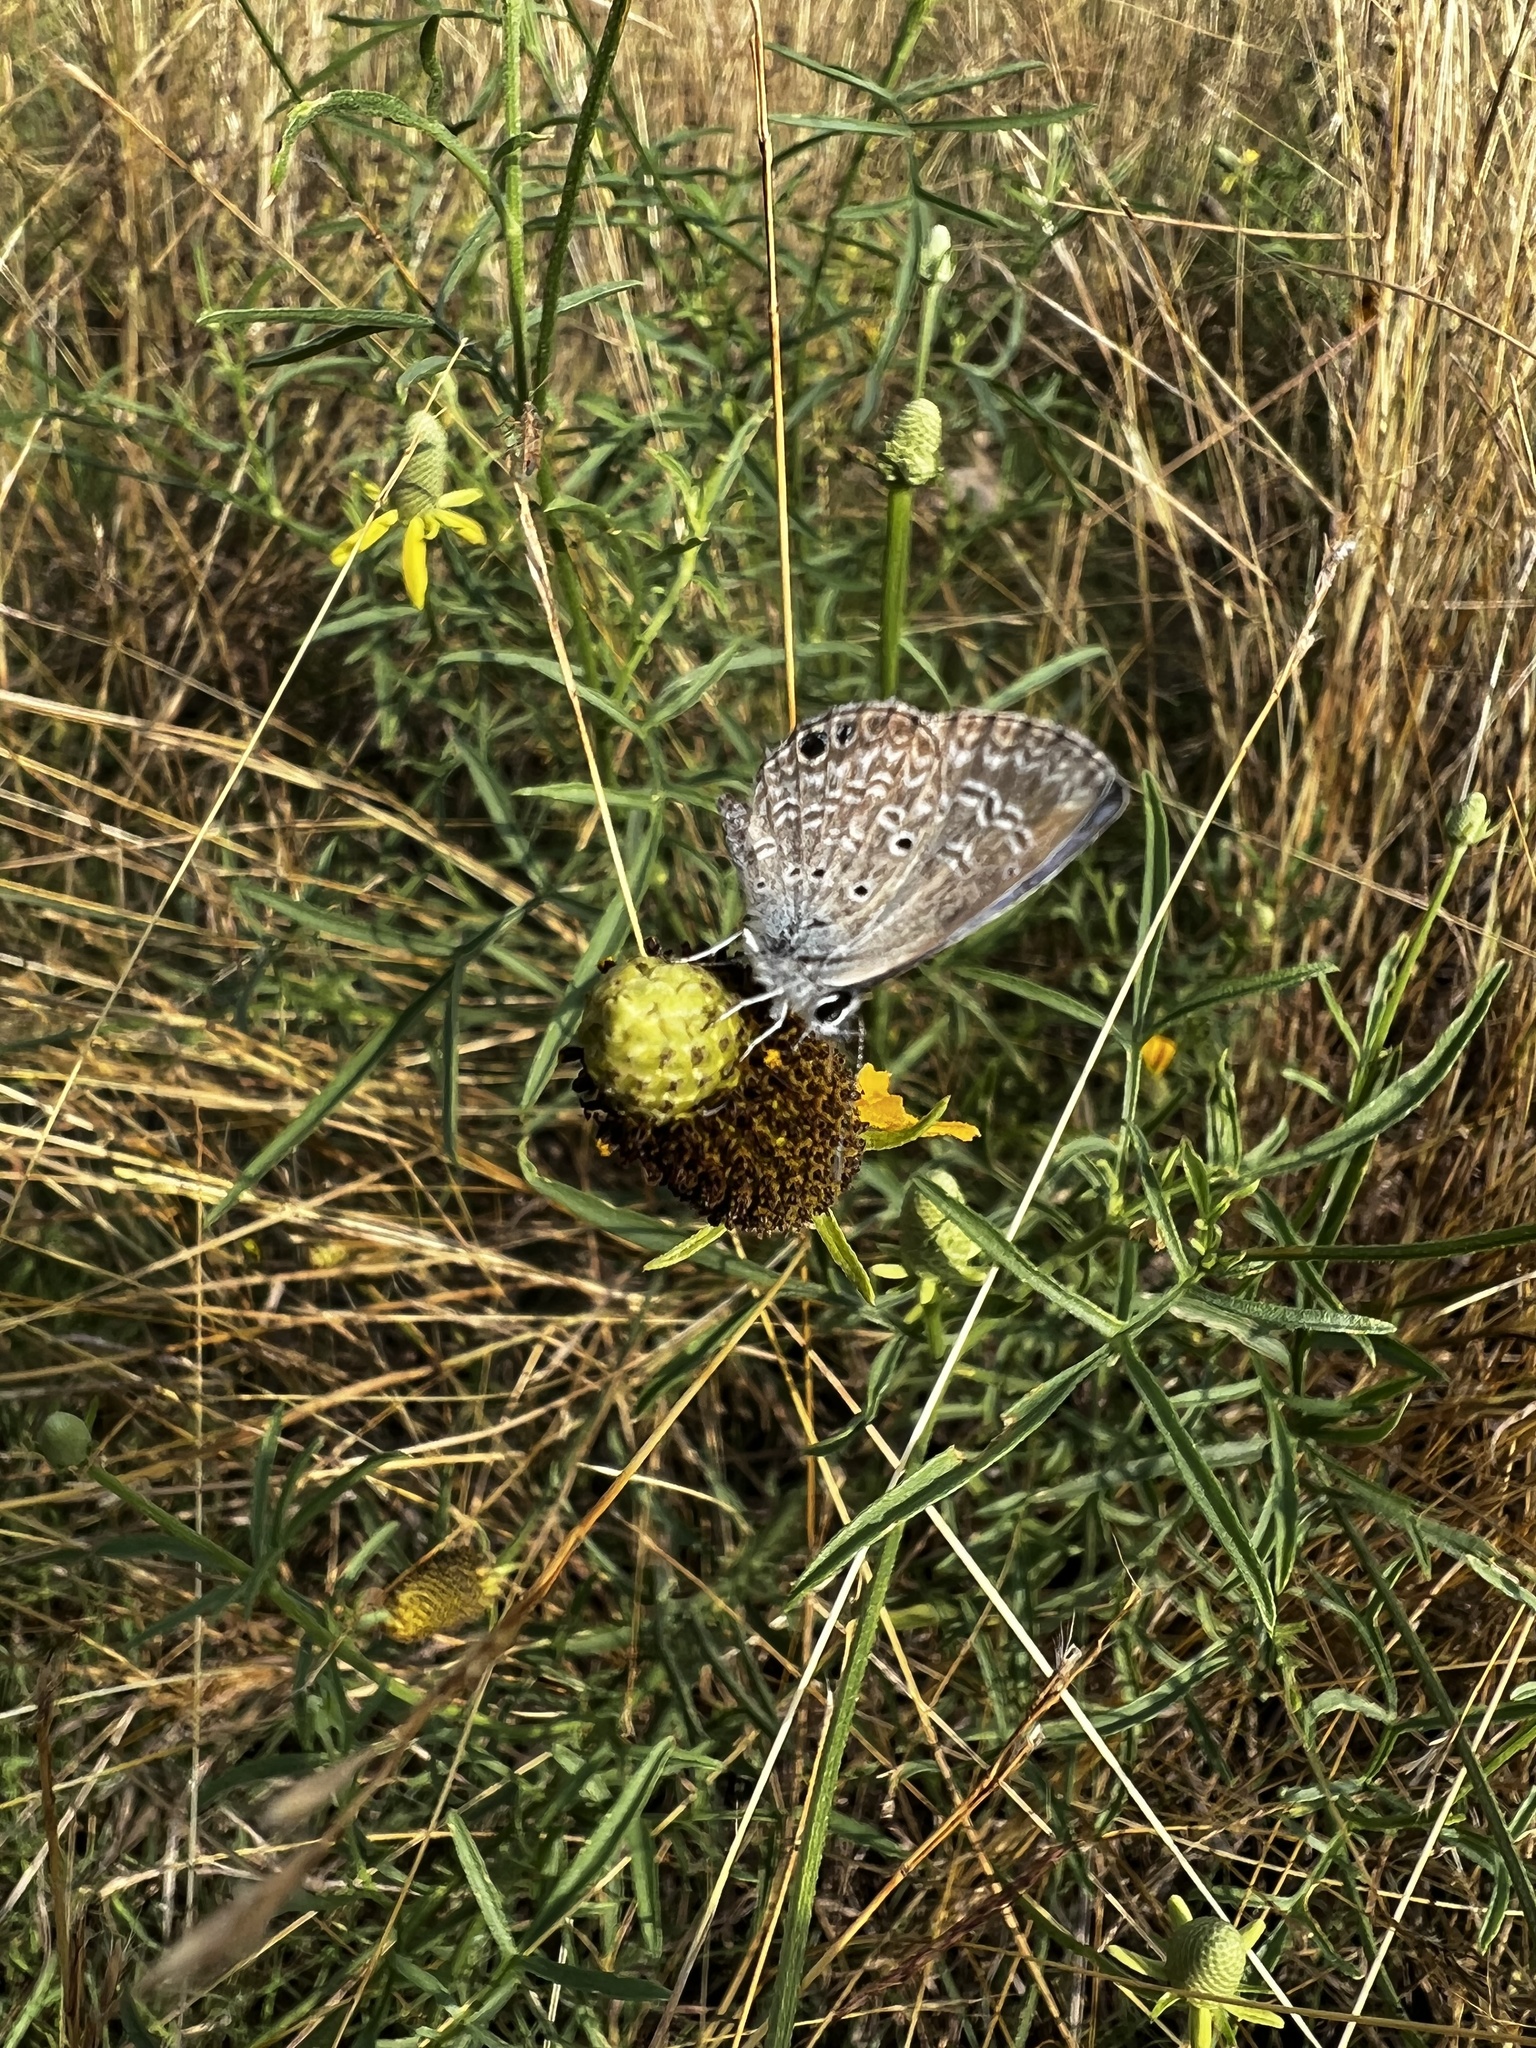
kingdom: Animalia
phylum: Arthropoda
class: Insecta
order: Lepidoptera
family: Lycaenidae
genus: Hemiargus
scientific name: Hemiargus ceraunus
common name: Ceraunus blue
